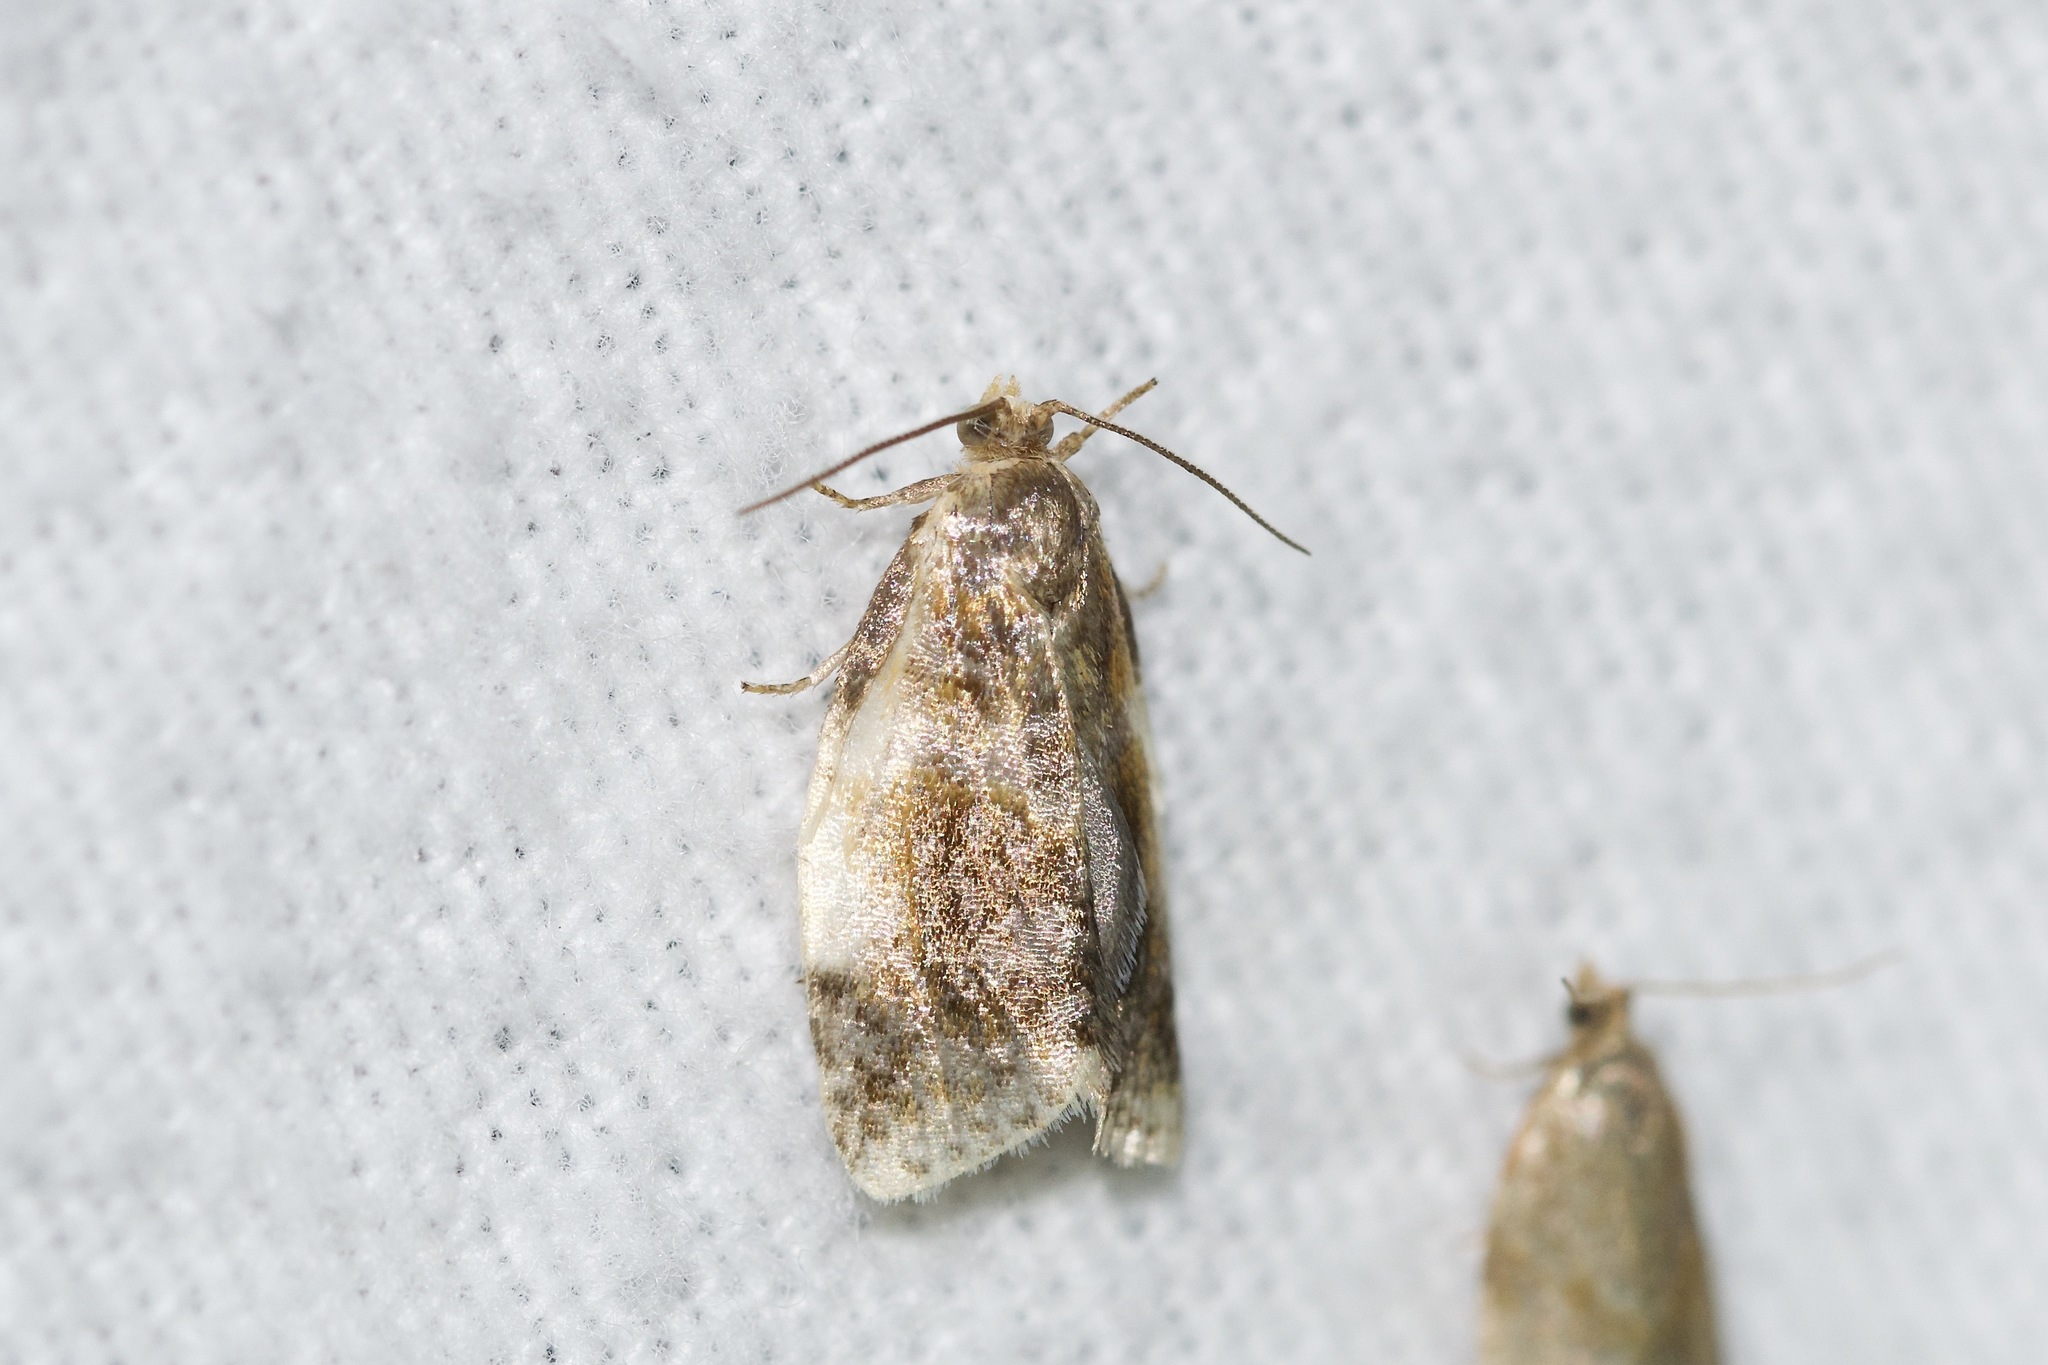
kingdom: Animalia
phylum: Arthropoda
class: Insecta
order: Lepidoptera
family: Tortricidae
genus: Clepsis
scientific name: Clepsis melaleucanus
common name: American apple tortrix
